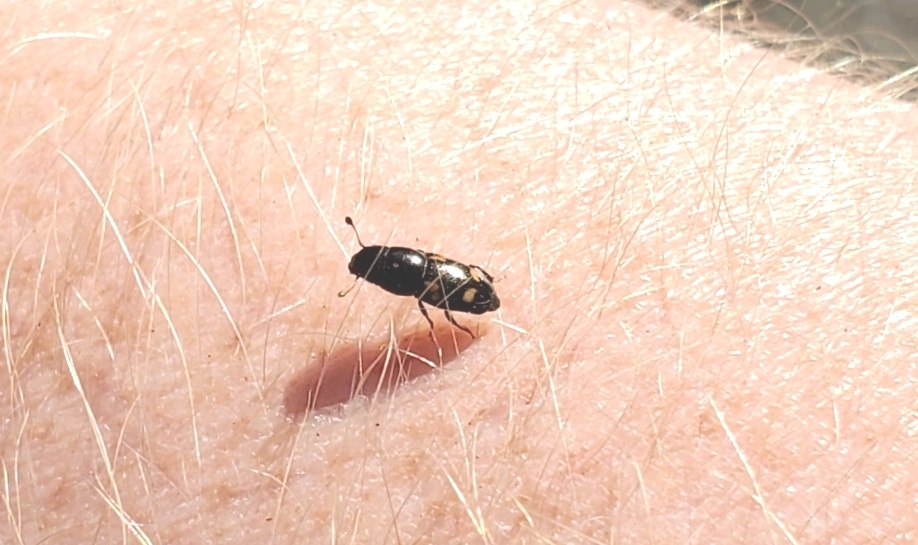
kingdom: Animalia
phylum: Arthropoda
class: Insecta
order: Coleoptera
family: Nitidulidae
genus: Glischrochilus
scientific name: Glischrochilus quadrisignatus
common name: Picnic beetle
